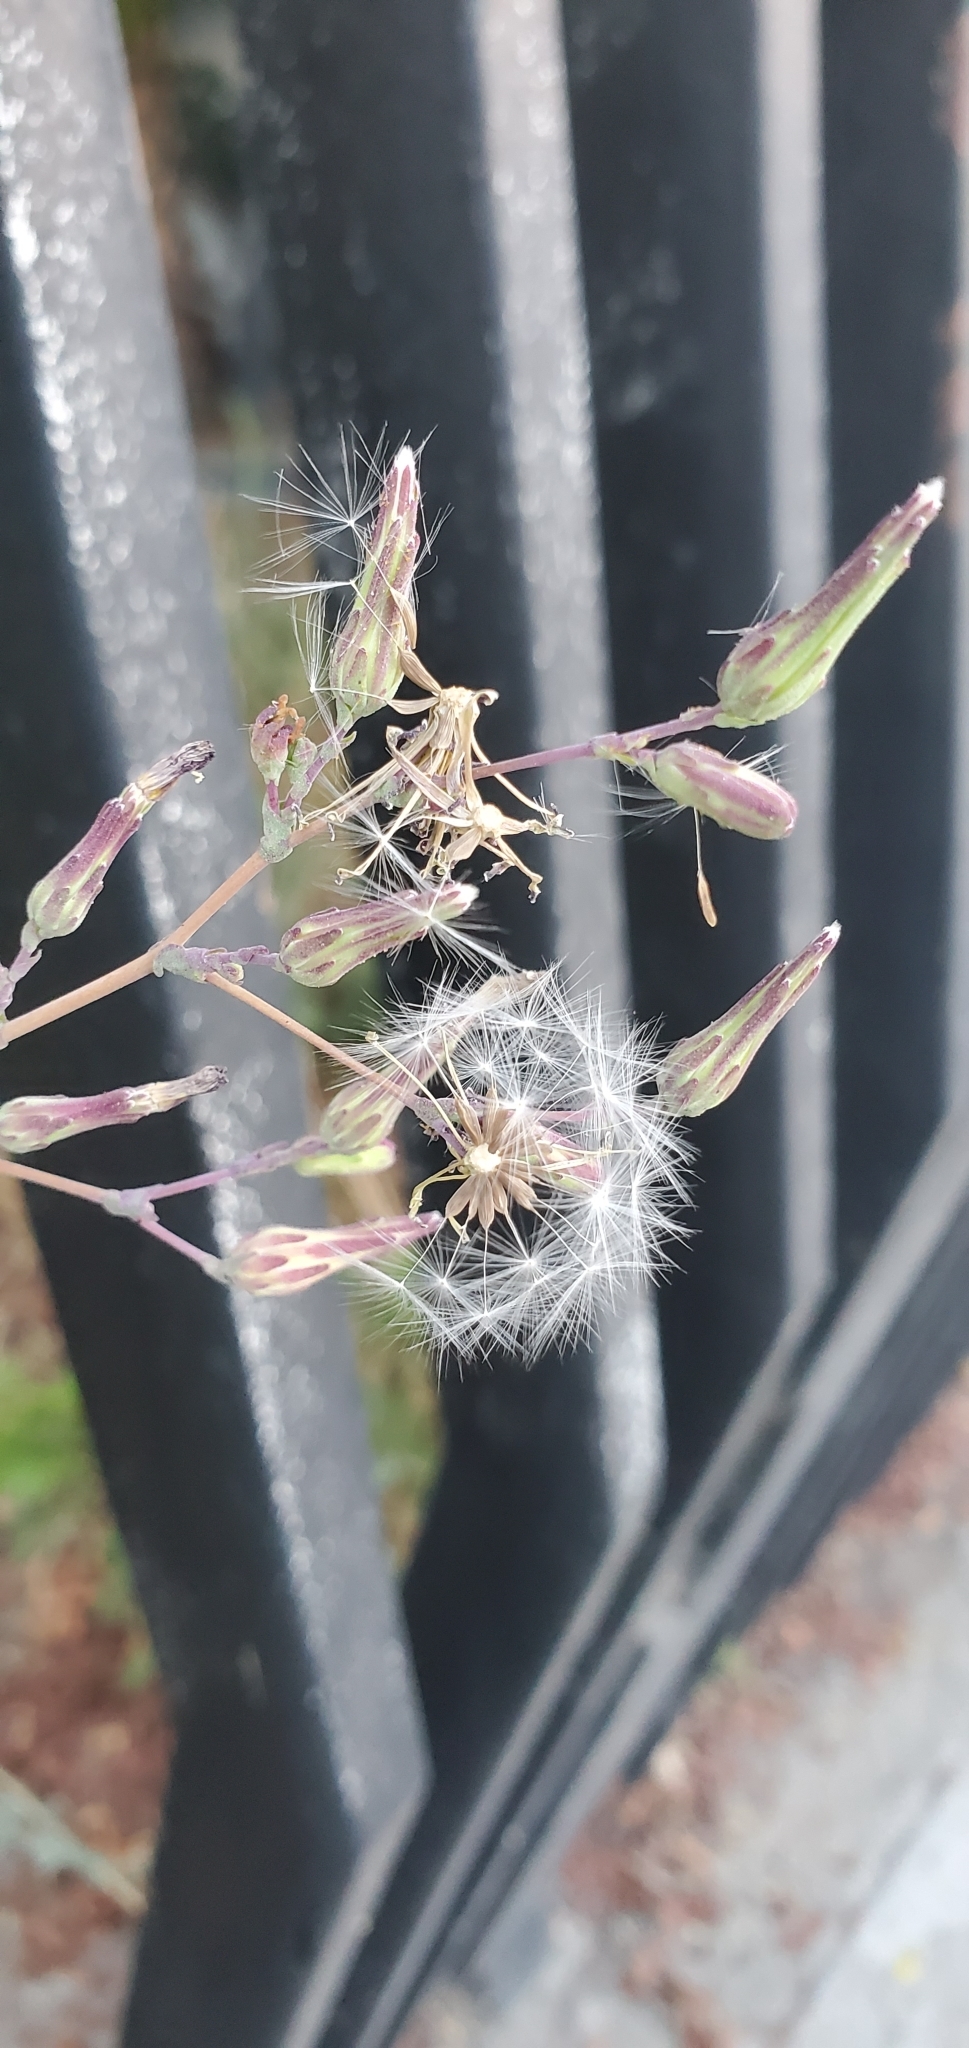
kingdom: Plantae
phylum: Tracheophyta
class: Magnoliopsida
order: Asterales
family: Asteraceae
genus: Lactuca
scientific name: Lactuca serriola
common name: Prickly lettuce
